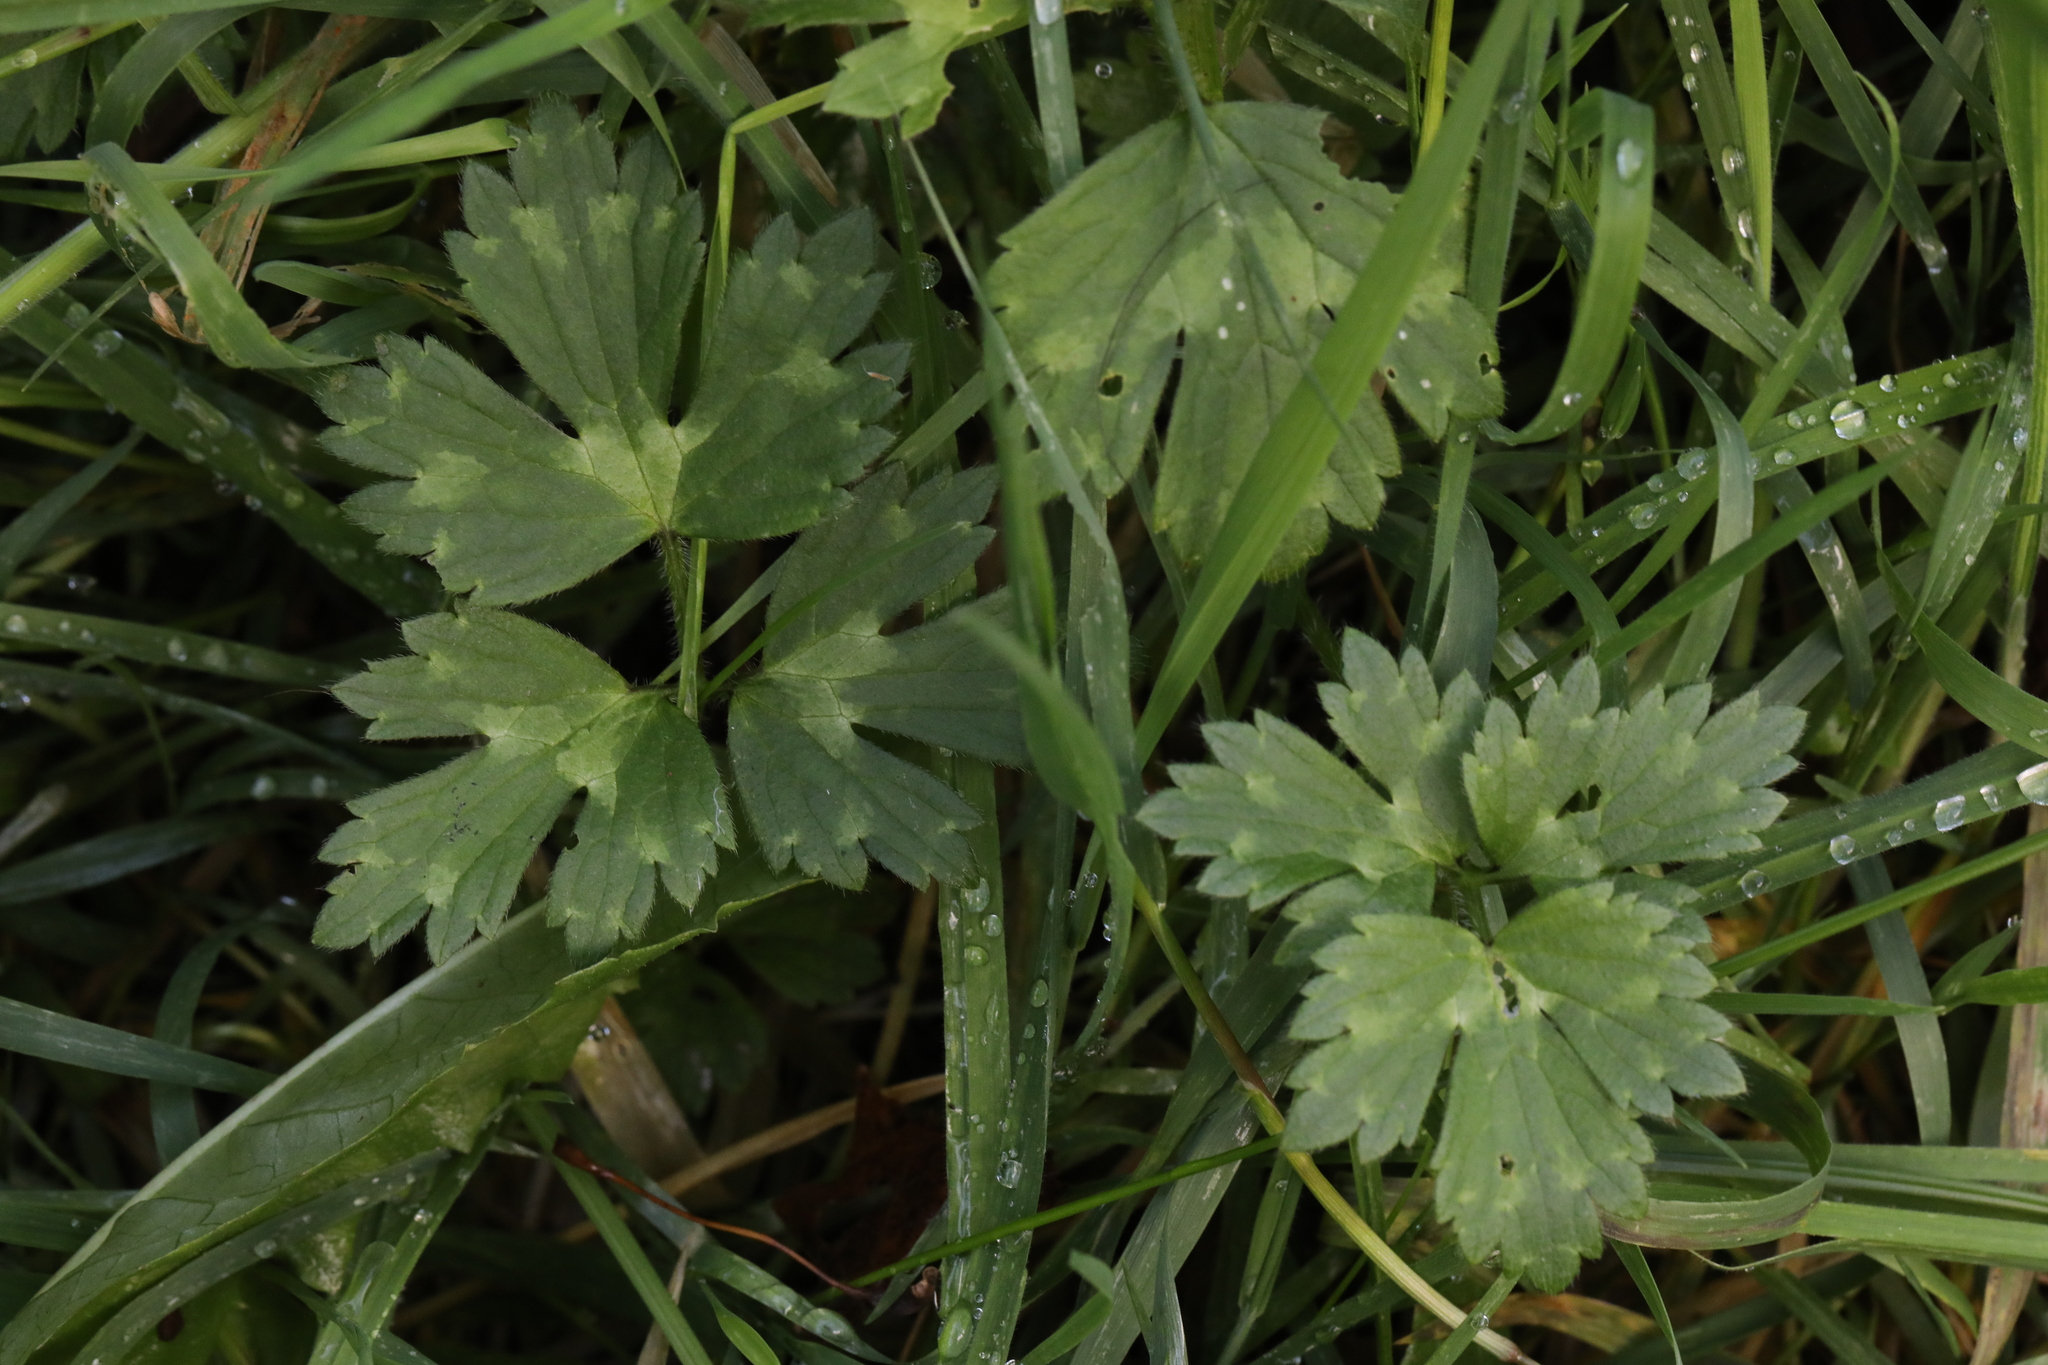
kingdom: Plantae
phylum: Tracheophyta
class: Magnoliopsida
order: Ranunculales
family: Ranunculaceae
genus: Ranunculus
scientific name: Ranunculus repens
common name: Creeping buttercup
